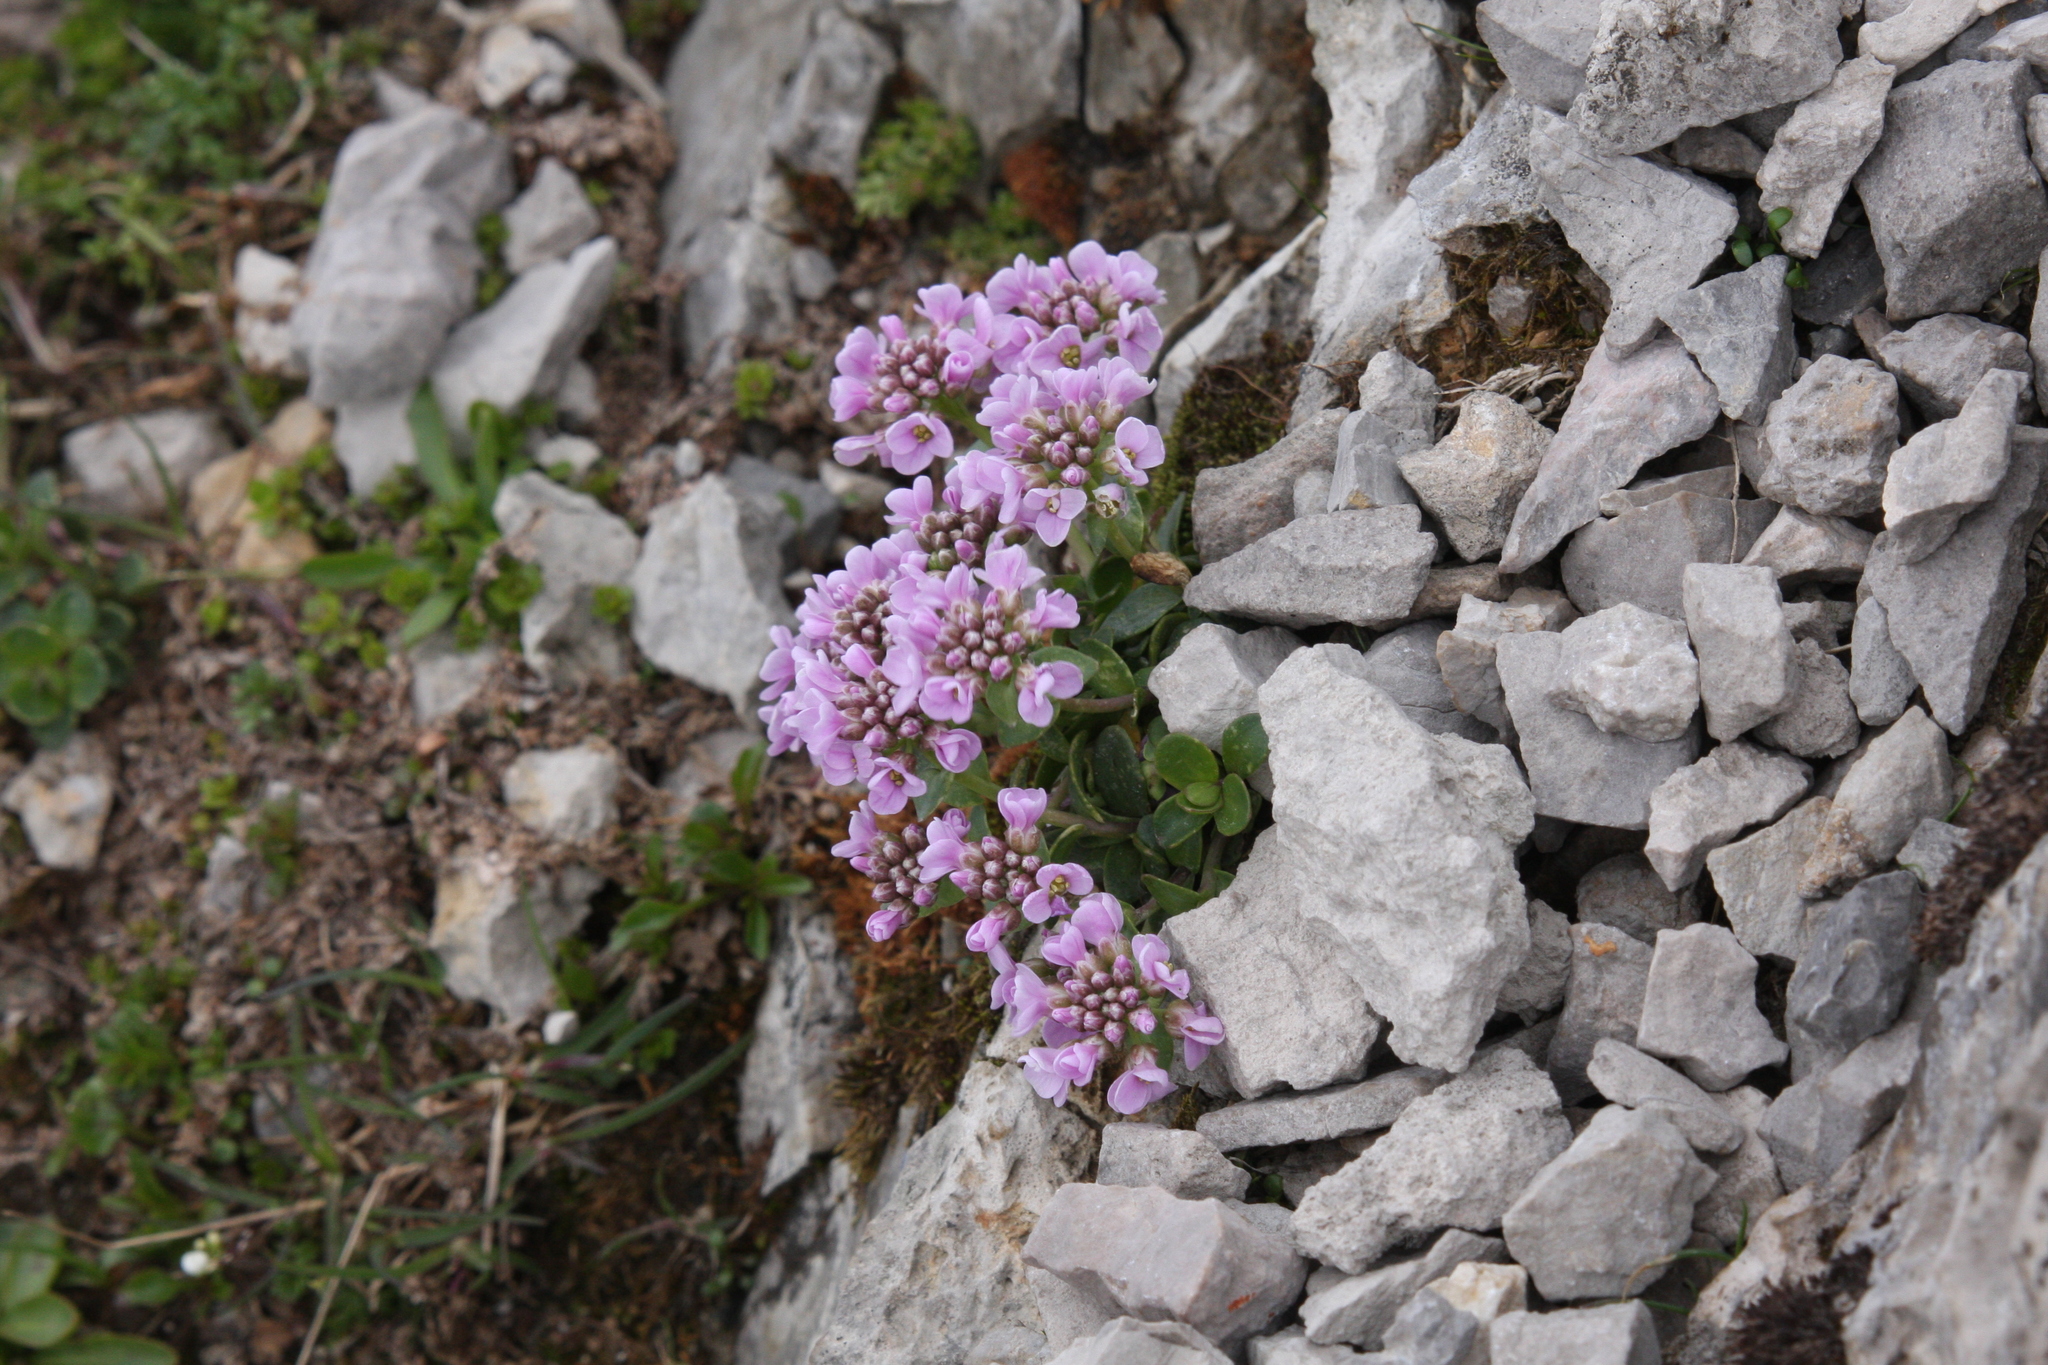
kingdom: Plantae
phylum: Tracheophyta
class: Magnoliopsida
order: Brassicales
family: Brassicaceae
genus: Noccaea
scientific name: Noccaea rotundifolia
